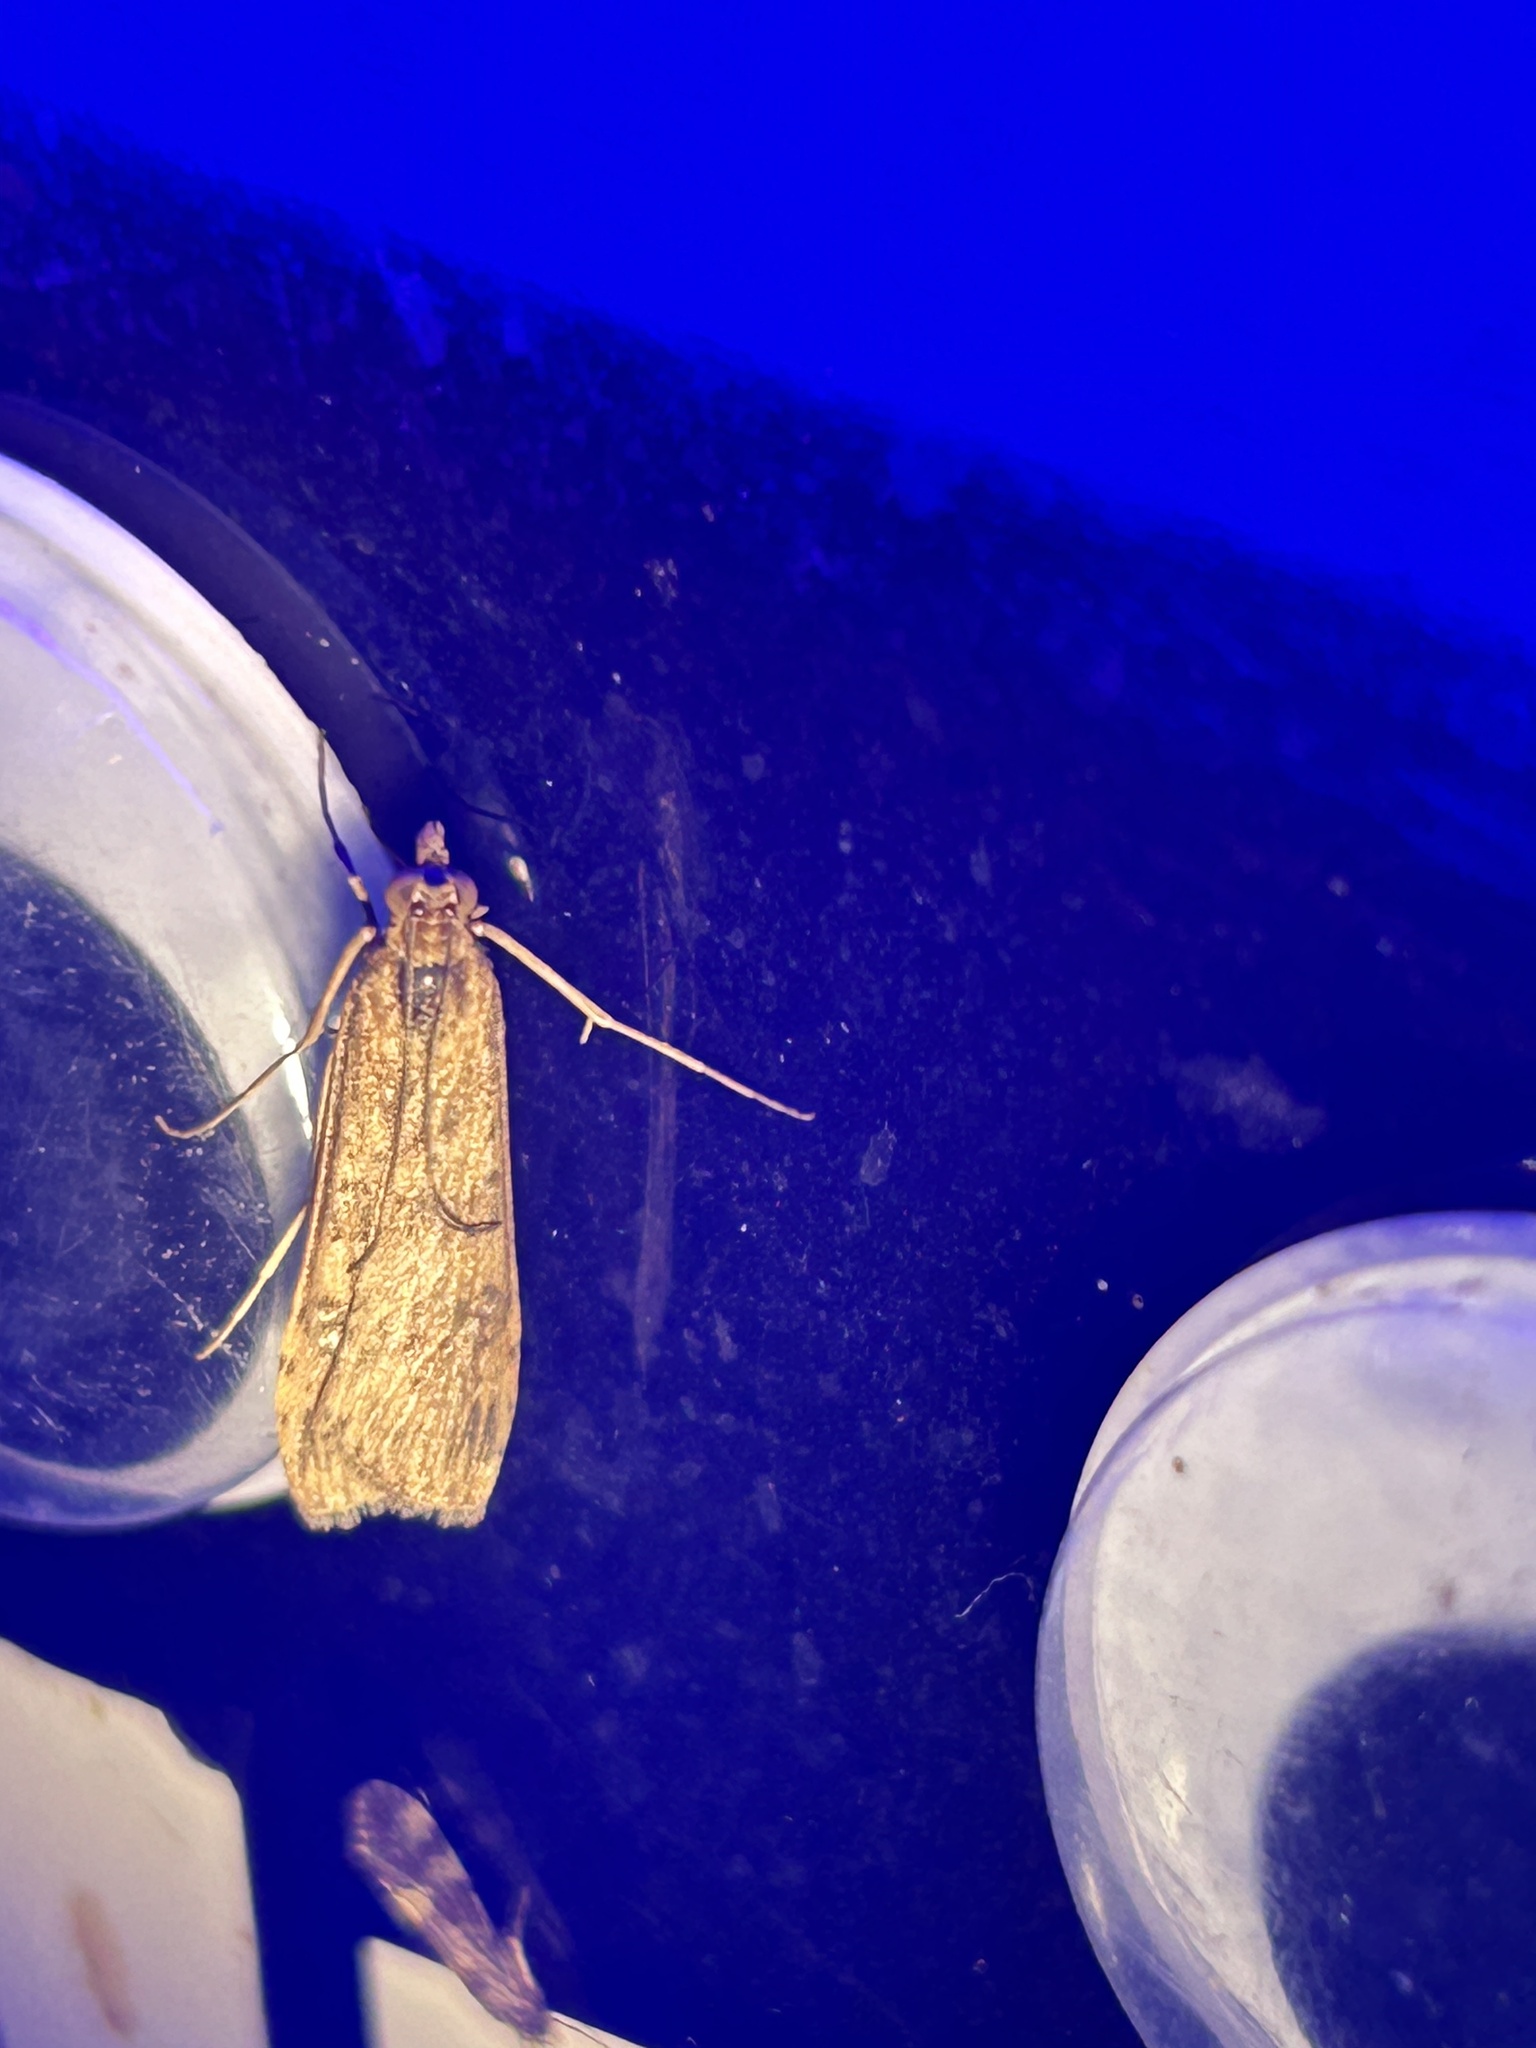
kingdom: Animalia
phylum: Arthropoda
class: Insecta
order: Lepidoptera
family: Crambidae
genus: Nomophila
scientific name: Nomophila nearctica
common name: American rush veneer
